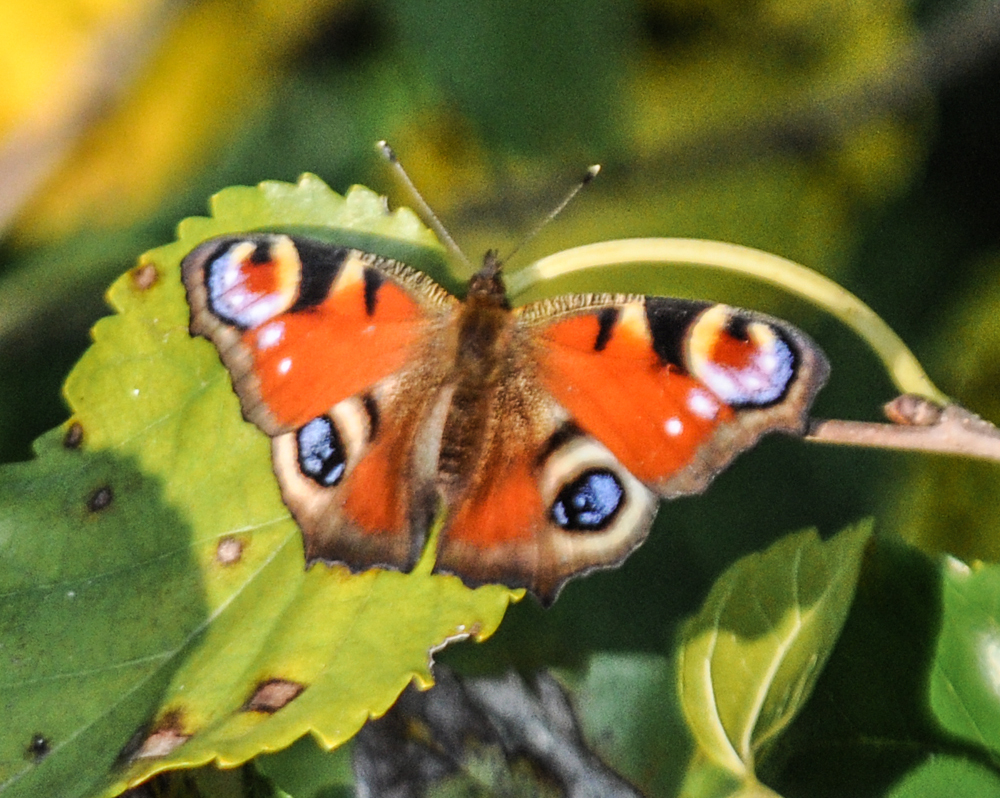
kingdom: Animalia
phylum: Arthropoda
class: Insecta
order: Lepidoptera
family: Nymphalidae
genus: Aglais
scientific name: Aglais io
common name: Peacock
